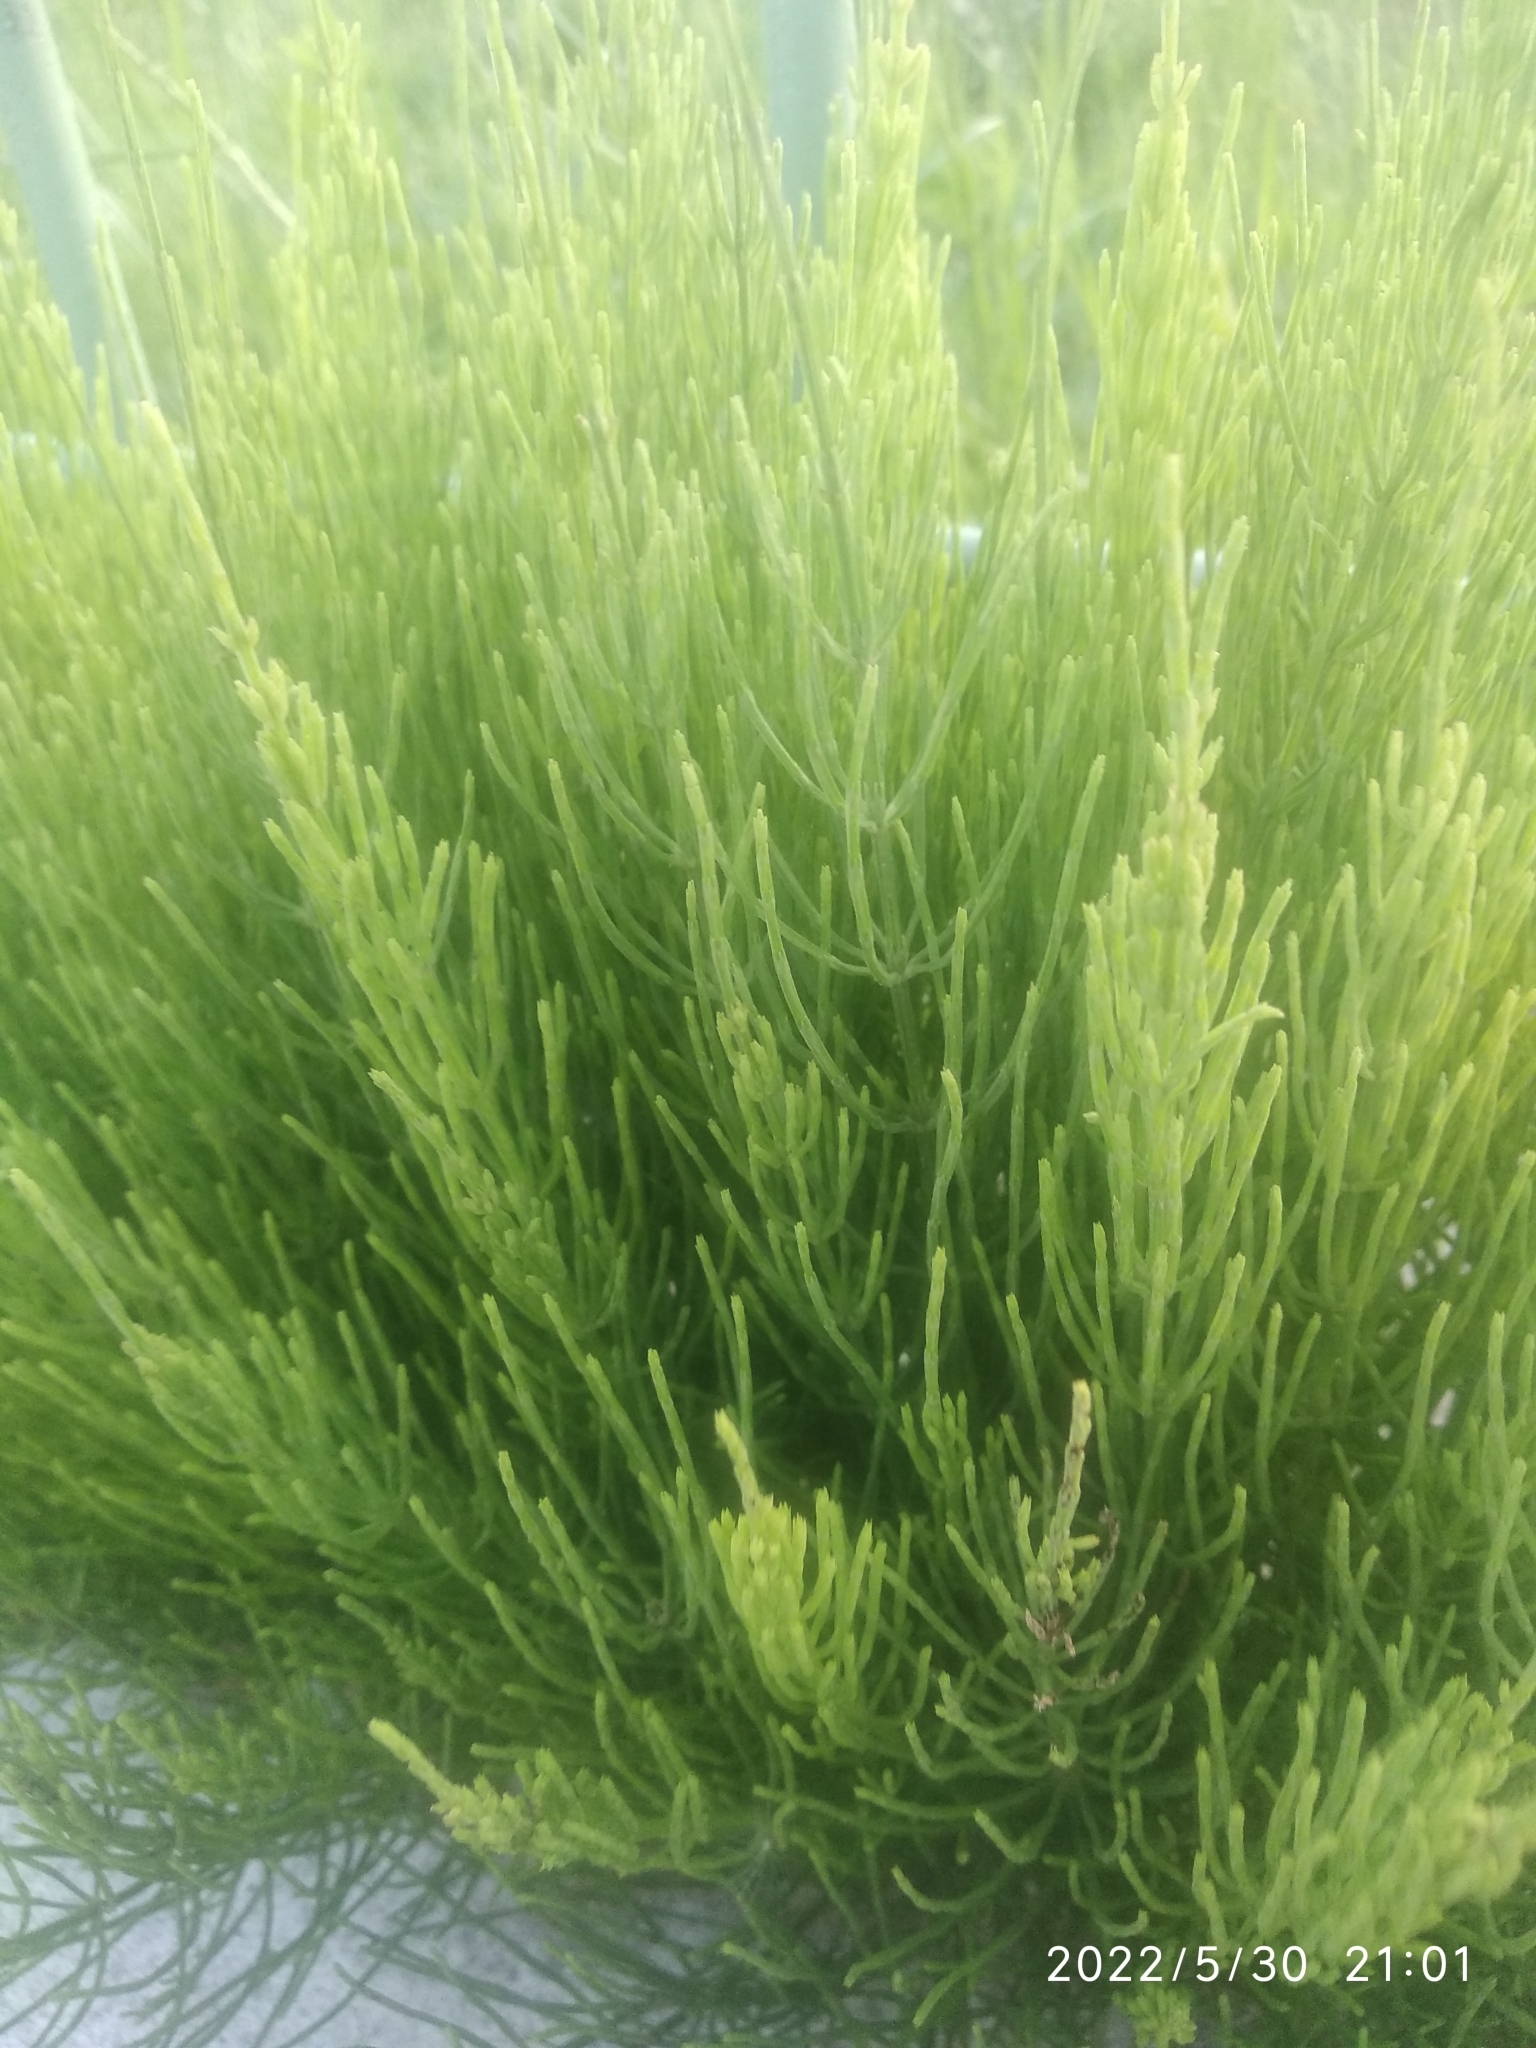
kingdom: Plantae
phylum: Tracheophyta
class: Polypodiopsida
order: Equisetales
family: Equisetaceae
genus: Equisetum
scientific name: Equisetum arvense
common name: Field horsetail
